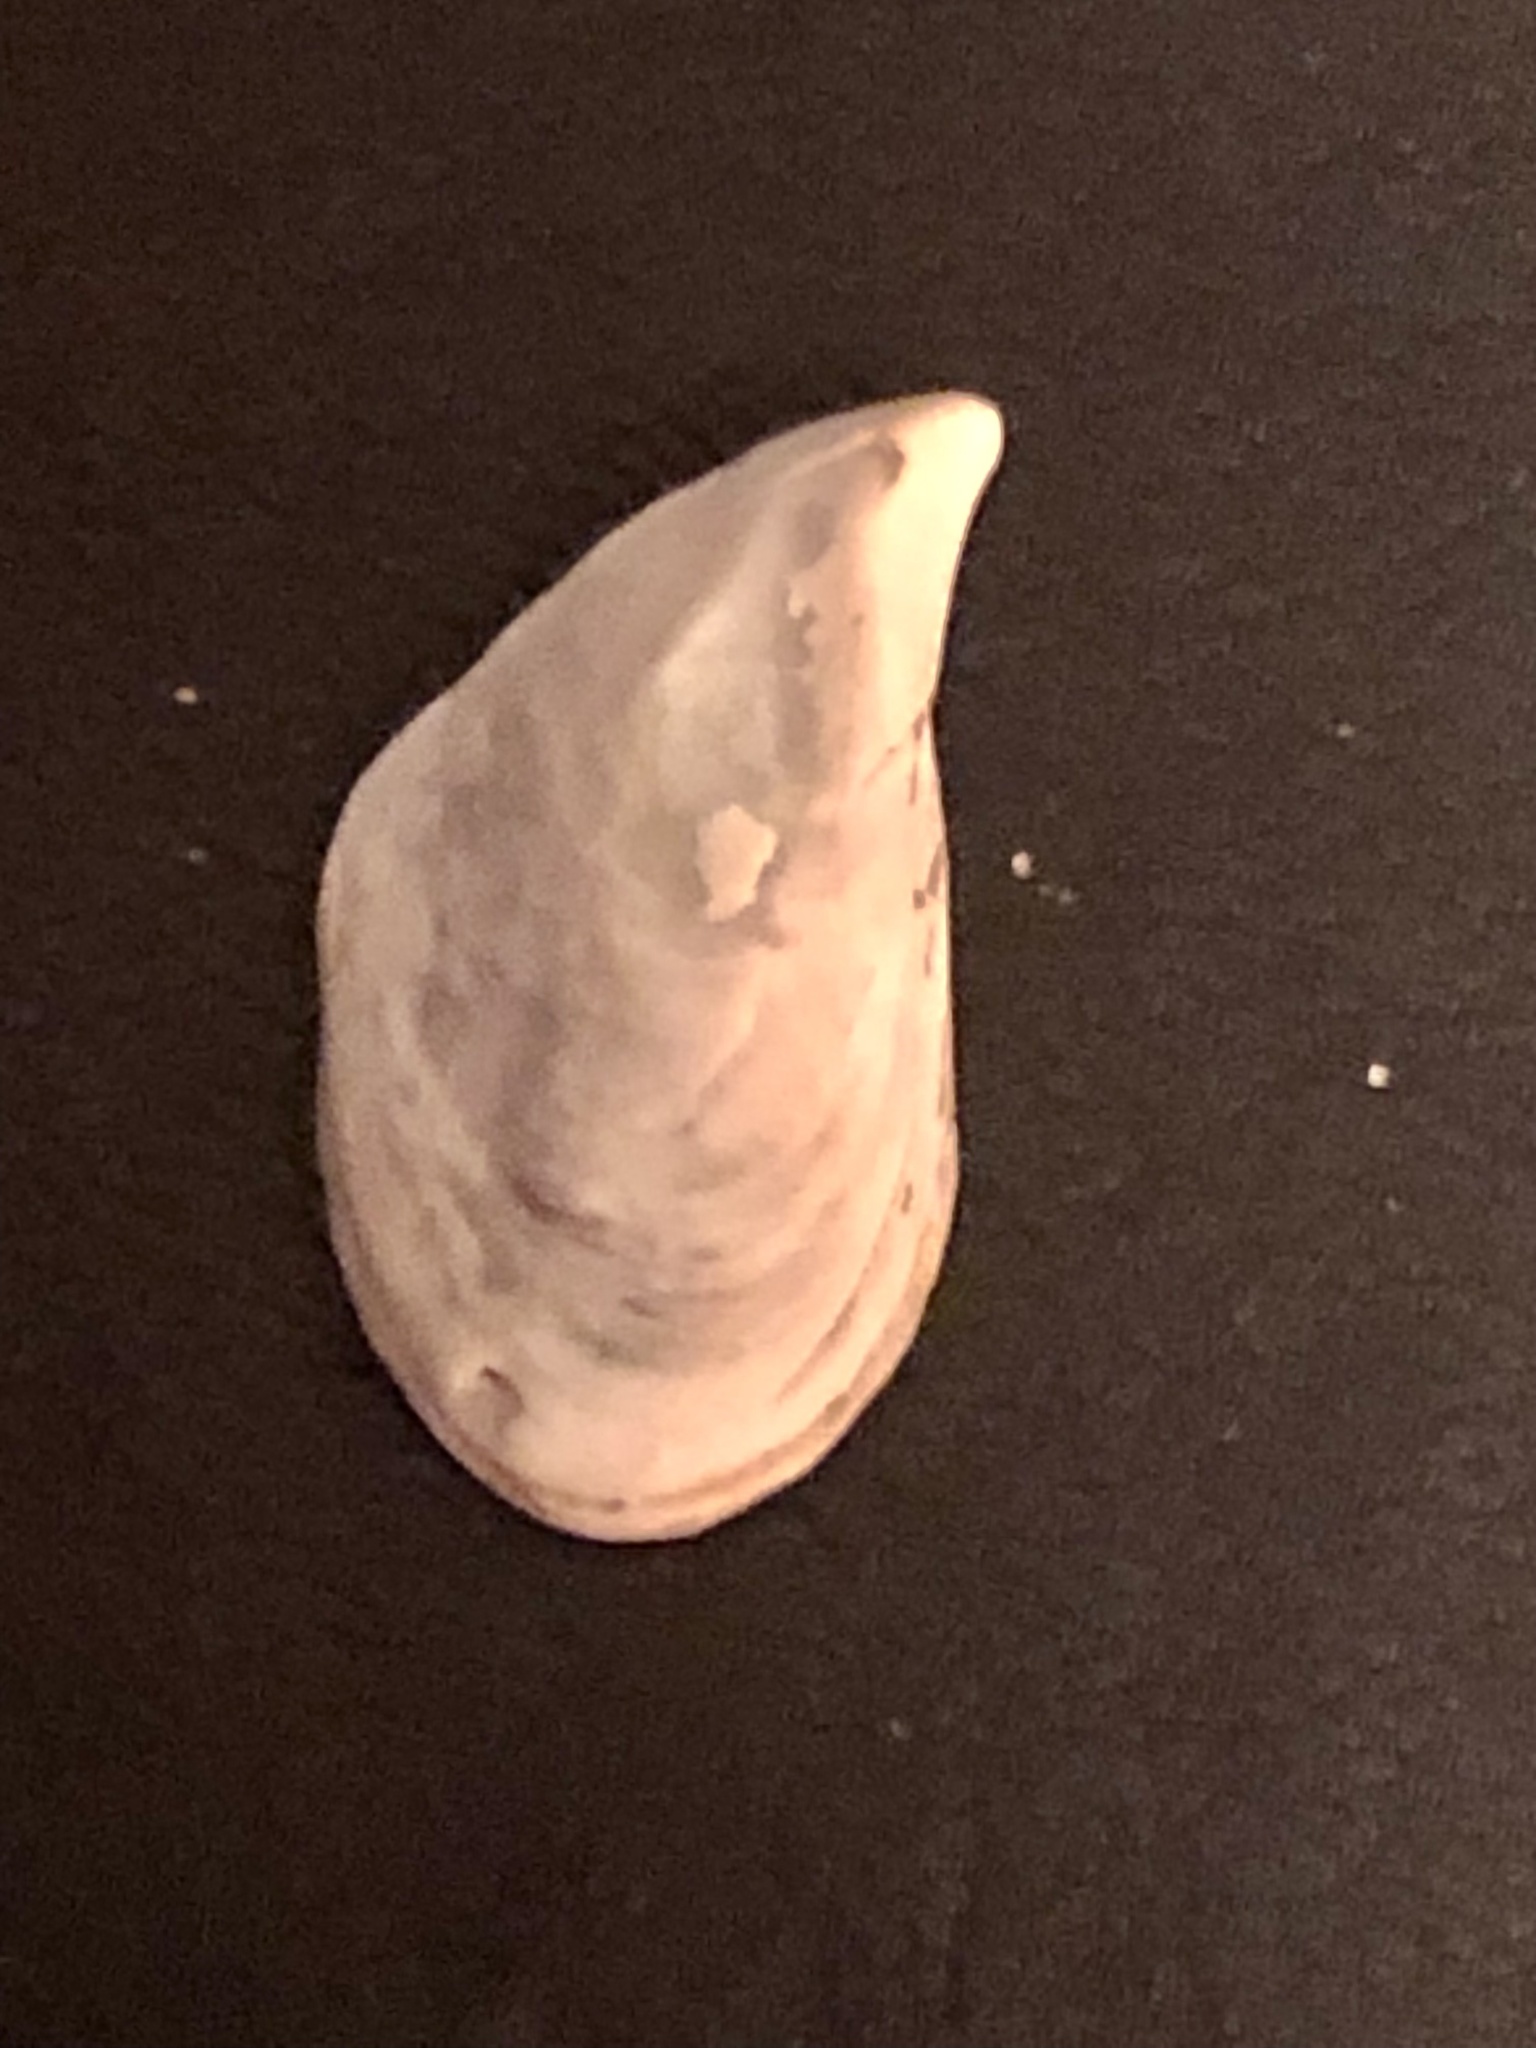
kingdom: Animalia
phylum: Mollusca
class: Bivalvia
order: Myida
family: Dreissenidae
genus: Dreissena
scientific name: Dreissena bugensis
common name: Quagga mussel
